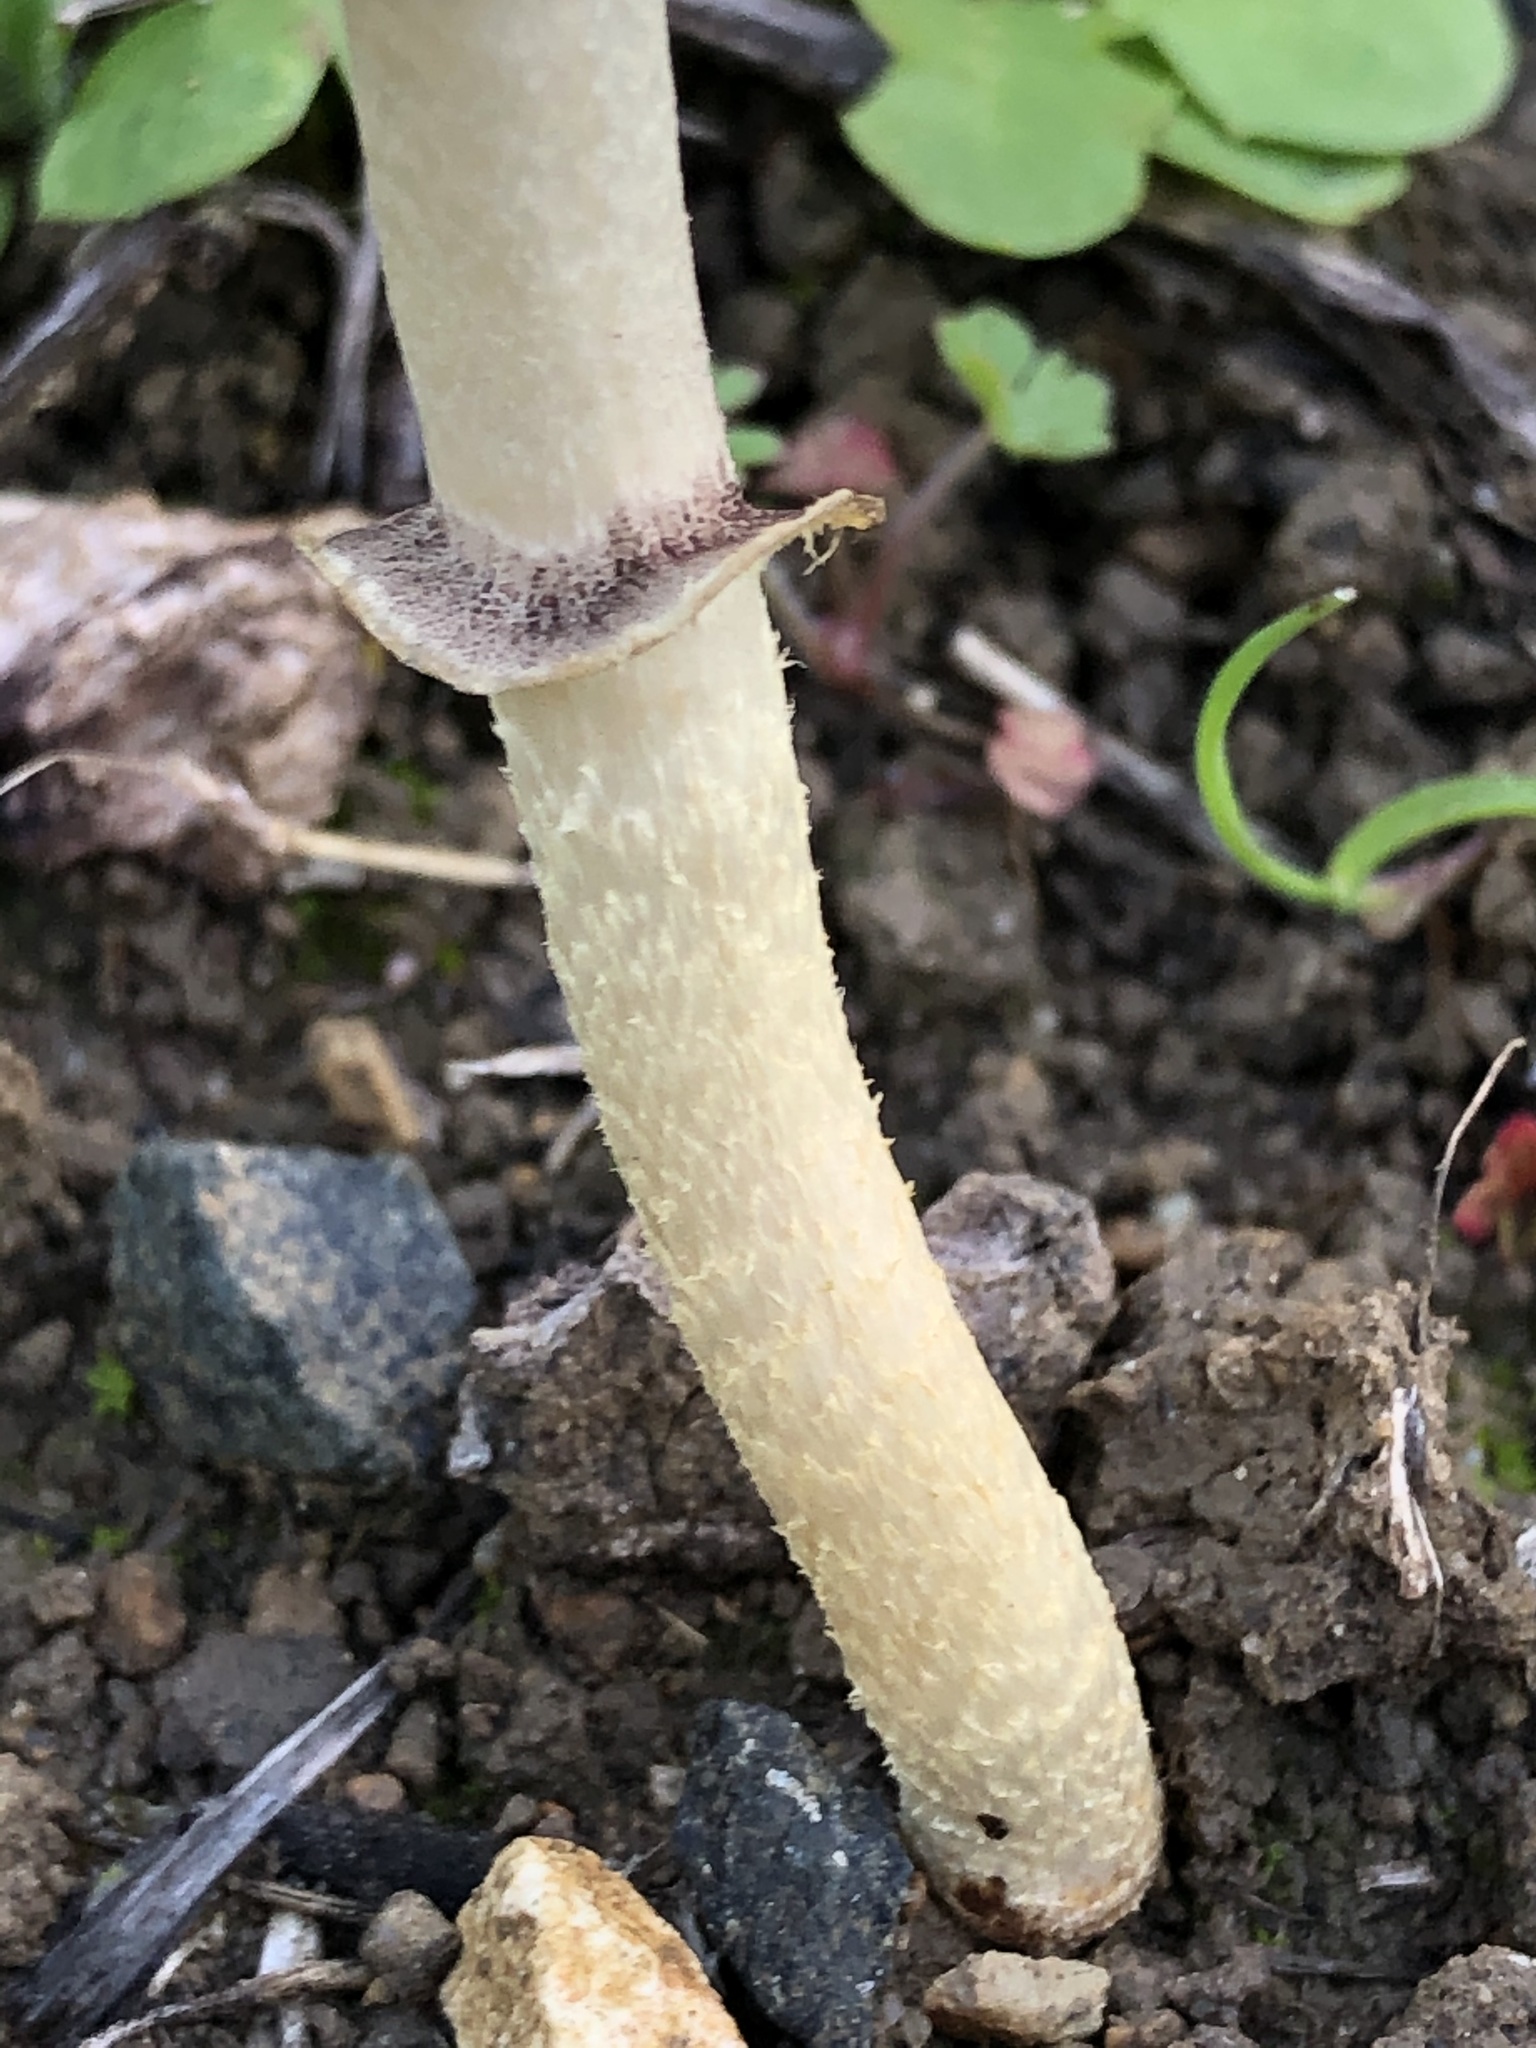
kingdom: Fungi
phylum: Basidiomycota
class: Agaricomycetes
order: Agaricales
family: Strophariaceae
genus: Leratiomyces
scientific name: Leratiomyces percevalii
